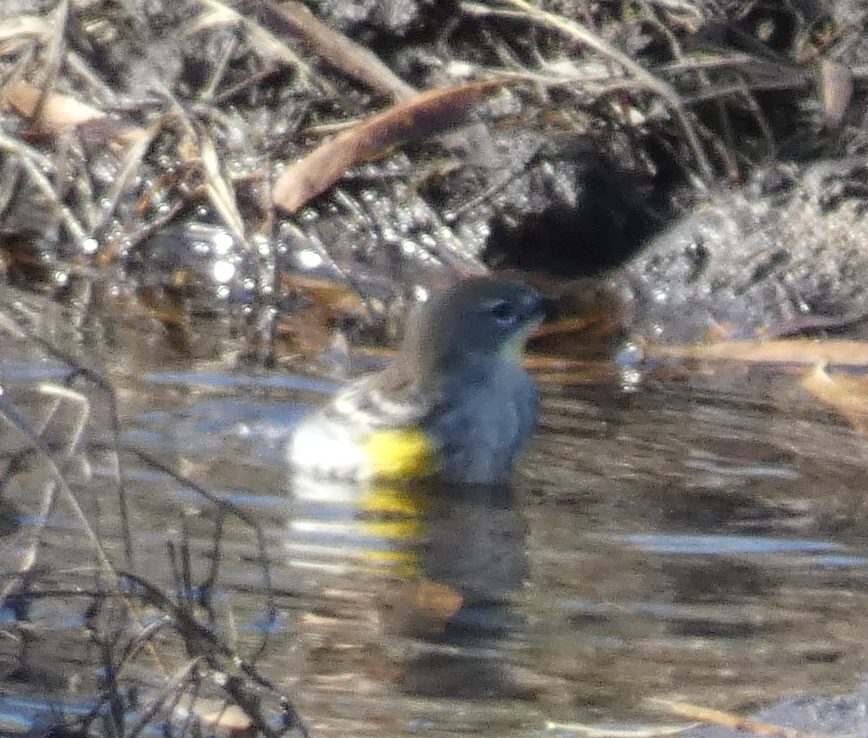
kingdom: Animalia
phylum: Chordata
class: Aves
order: Passeriformes
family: Parulidae
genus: Setophaga
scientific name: Setophaga coronata
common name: Myrtle warbler
